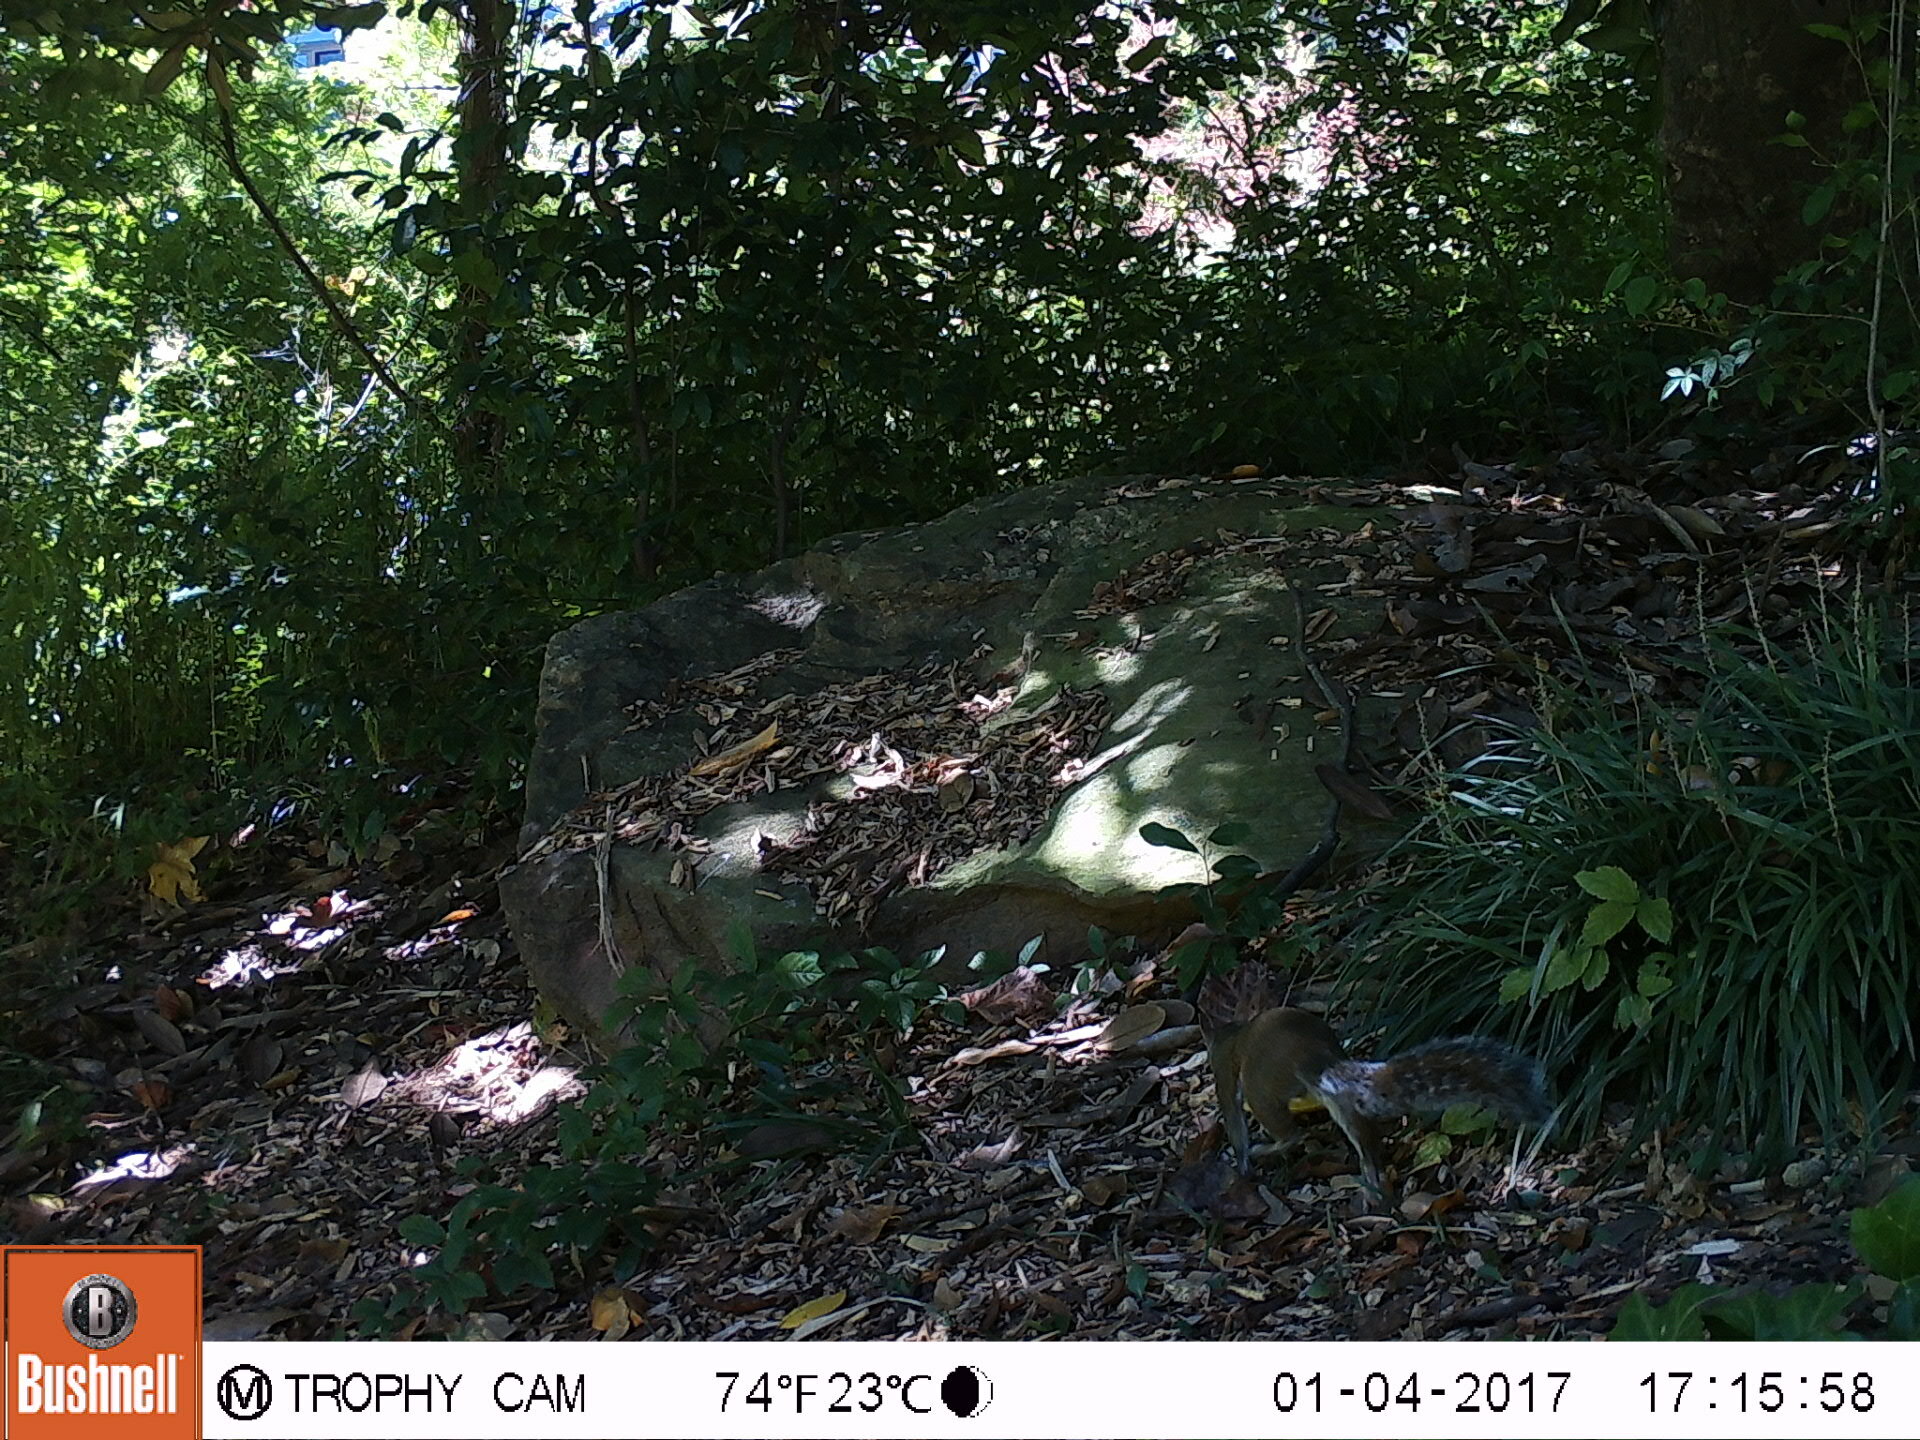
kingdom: Animalia
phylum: Chordata
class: Mammalia
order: Rodentia
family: Sciuridae
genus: Sciurus
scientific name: Sciurus carolinensis
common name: Eastern gray squirrel
